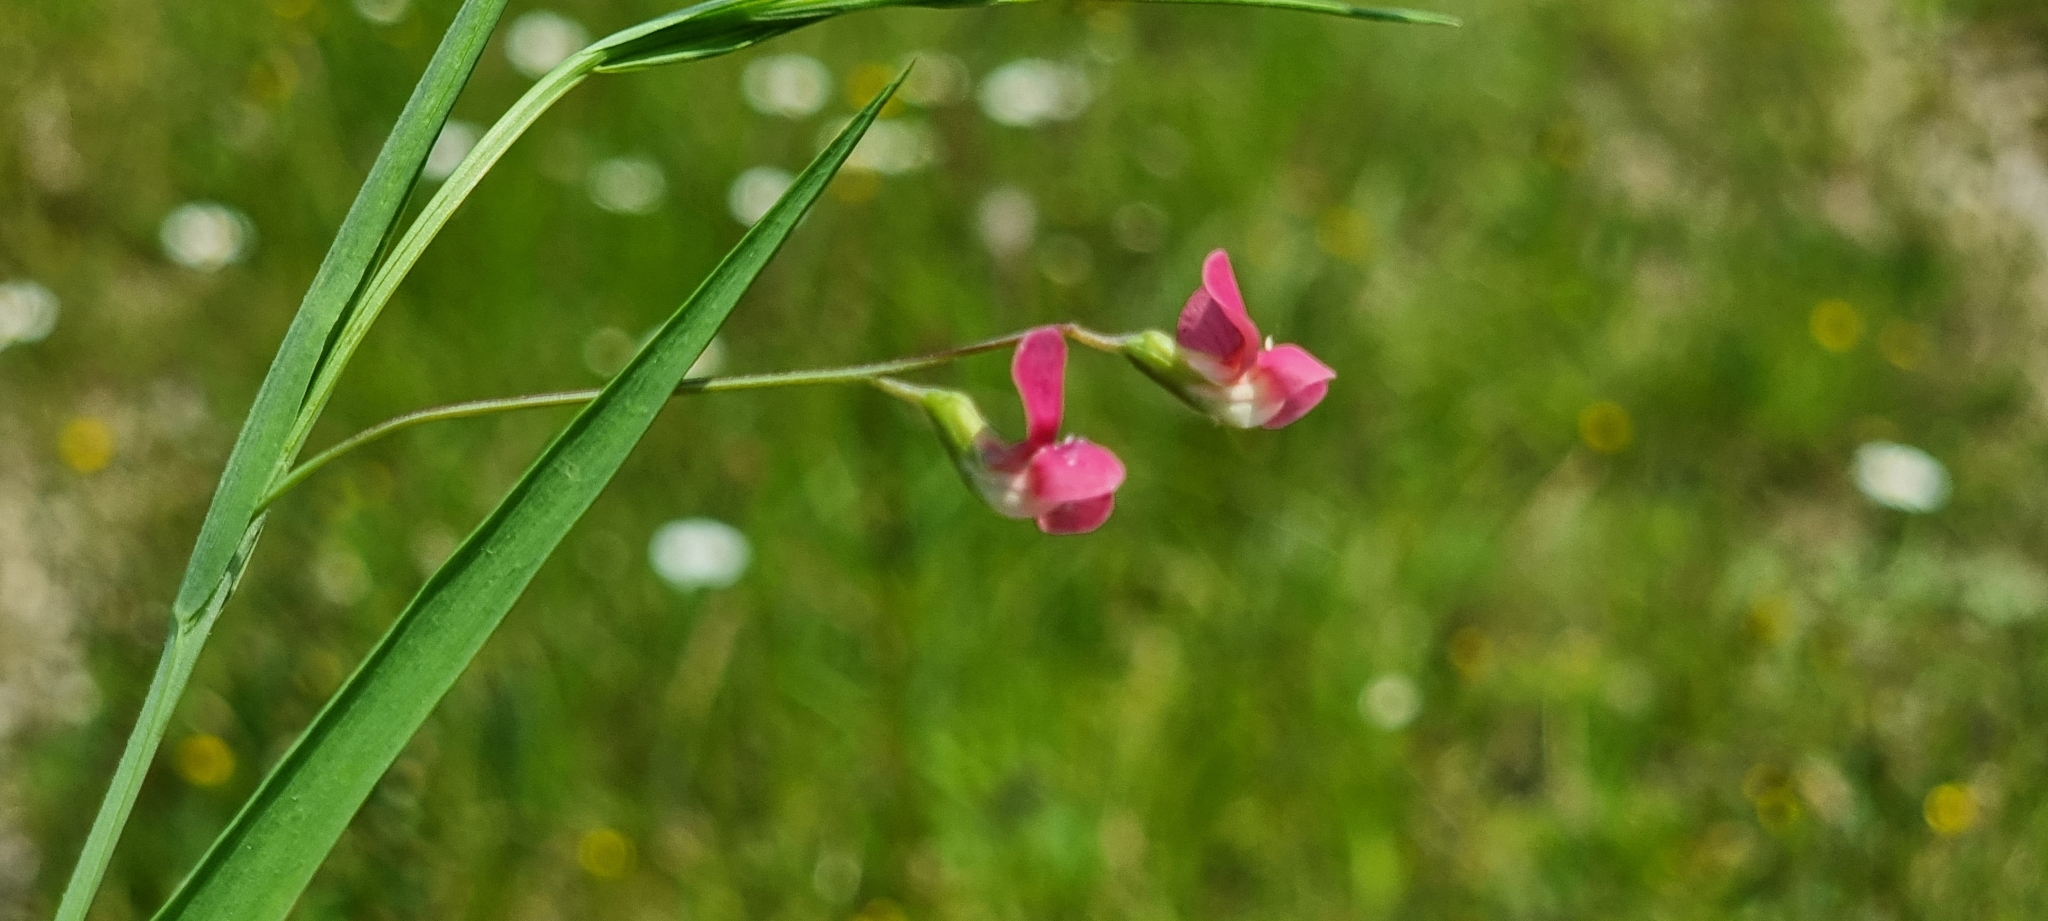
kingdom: Plantae
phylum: Tracheophyta
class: Magnoliopsida
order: Fabales
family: Fabaceae
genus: Lathyrus
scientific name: Lathyrus nissolia
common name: Grass vetchling
